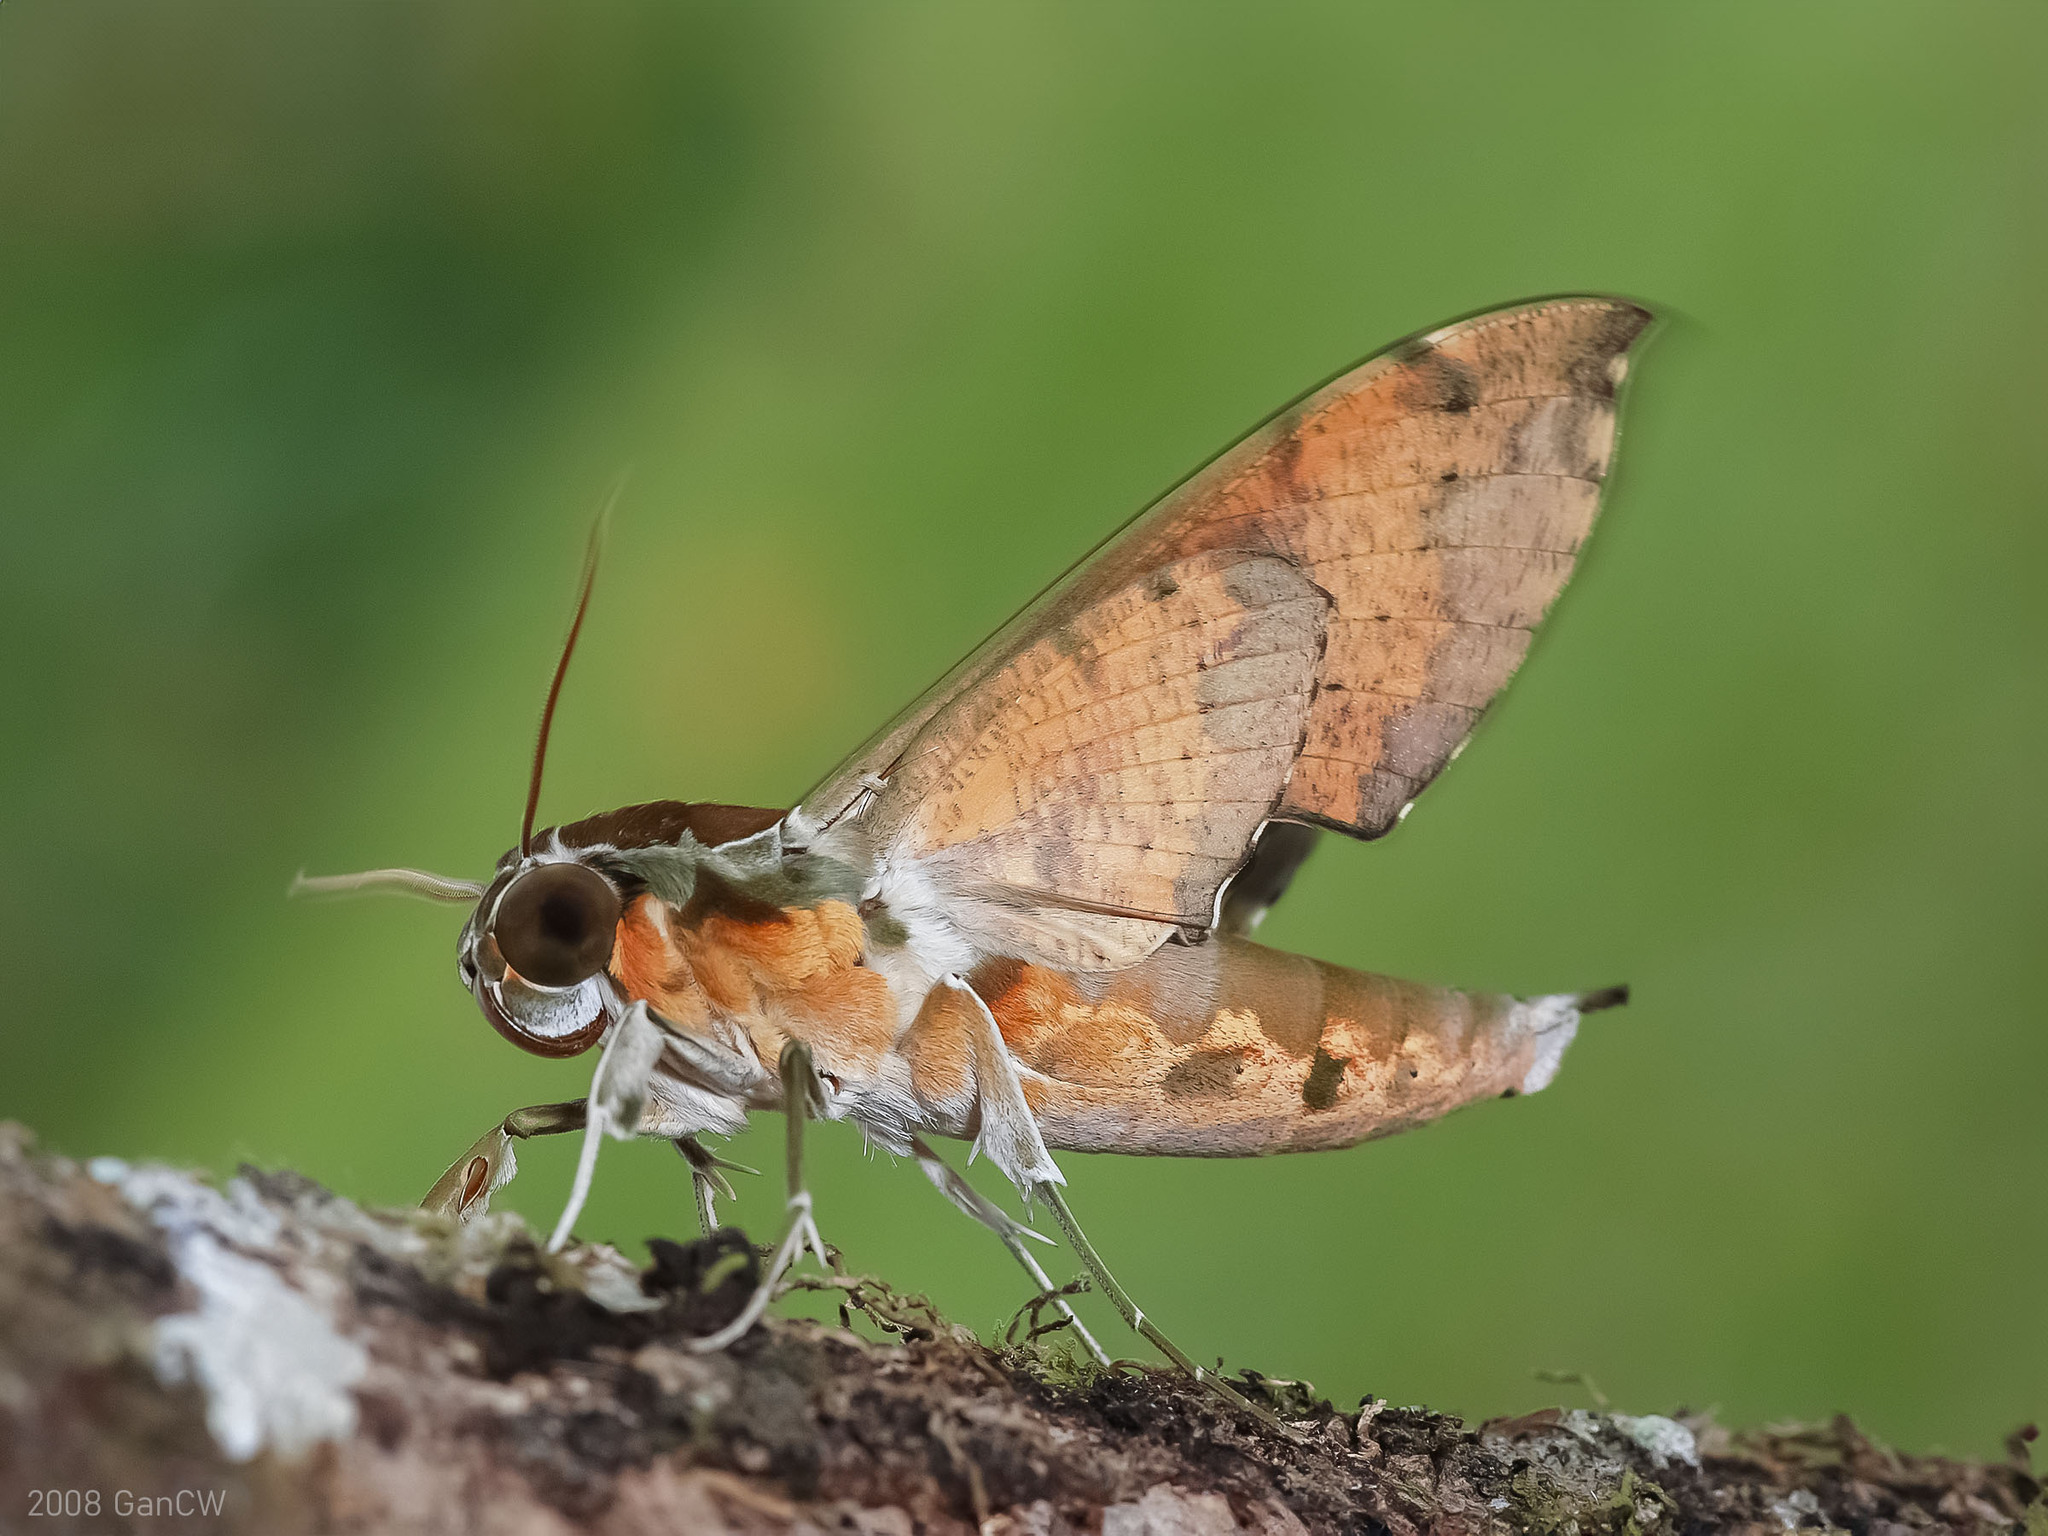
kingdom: Animalia
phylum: Arthropoda
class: Insecta
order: Lepidoptera
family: Sphingidae
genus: Cechenena
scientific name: Cechenena helops
